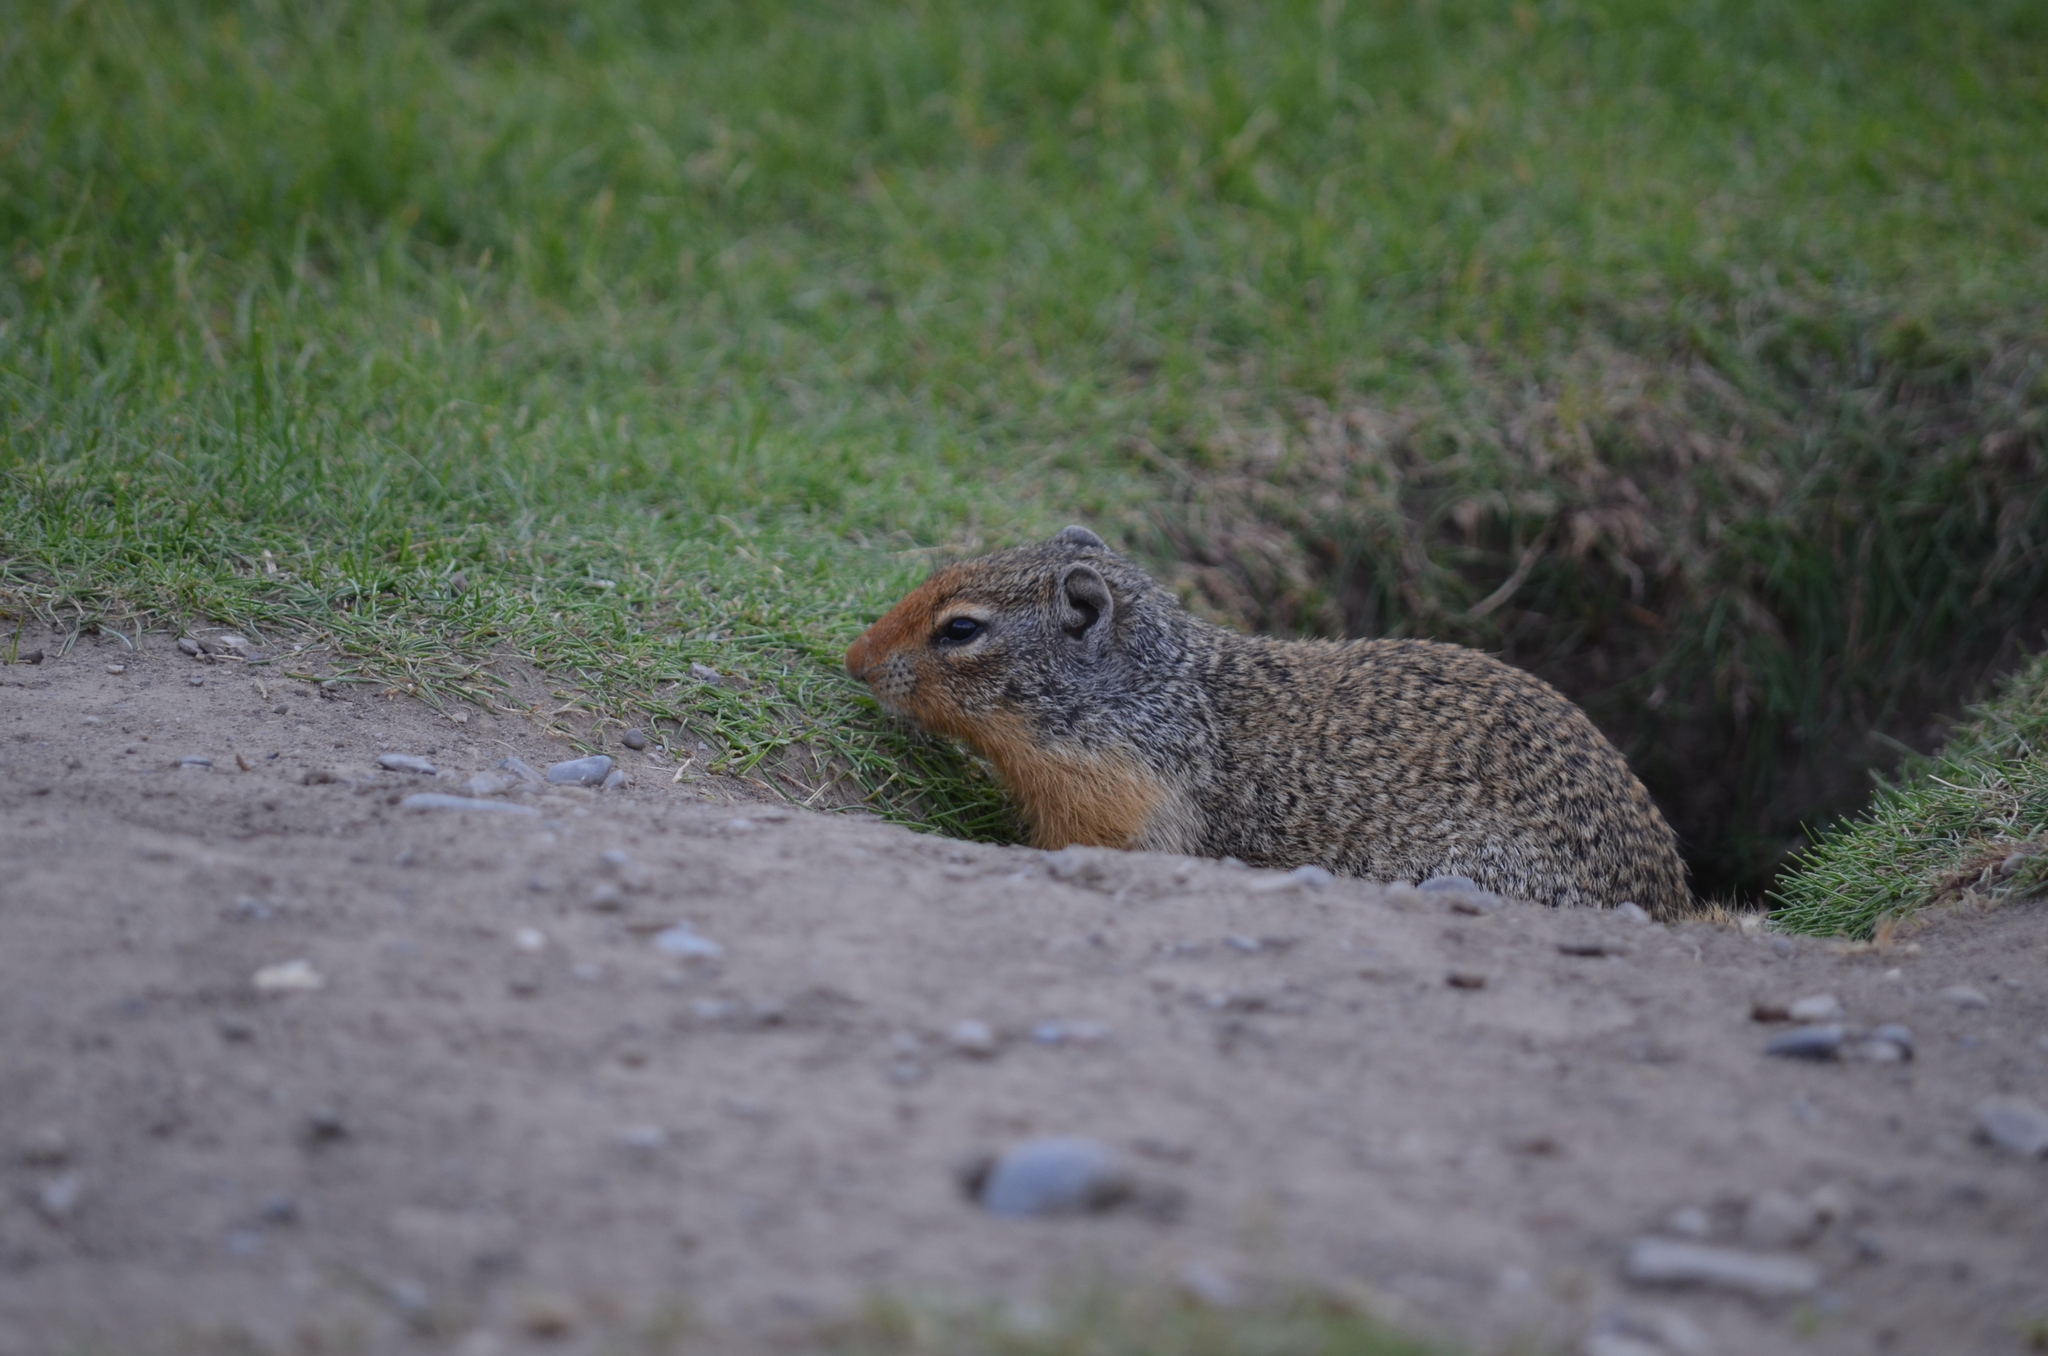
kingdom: Animalia
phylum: Chordata
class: Mammalia
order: Rodentia
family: Sciuridae
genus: Urocitellus
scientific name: Urocitellus columbianus
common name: Columbian ground squirrel
